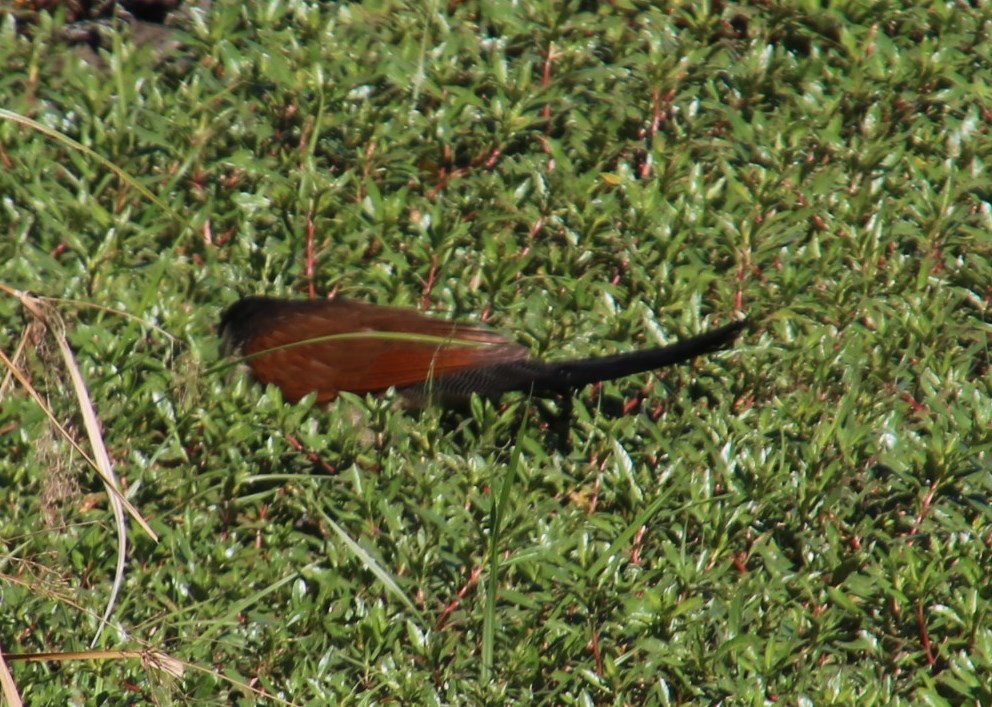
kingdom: Animalia
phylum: Chordata
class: Aves
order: Cuculiformes
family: Cuculidae
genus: Centropus
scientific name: Centropus superciliosus
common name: White-browed coucal
